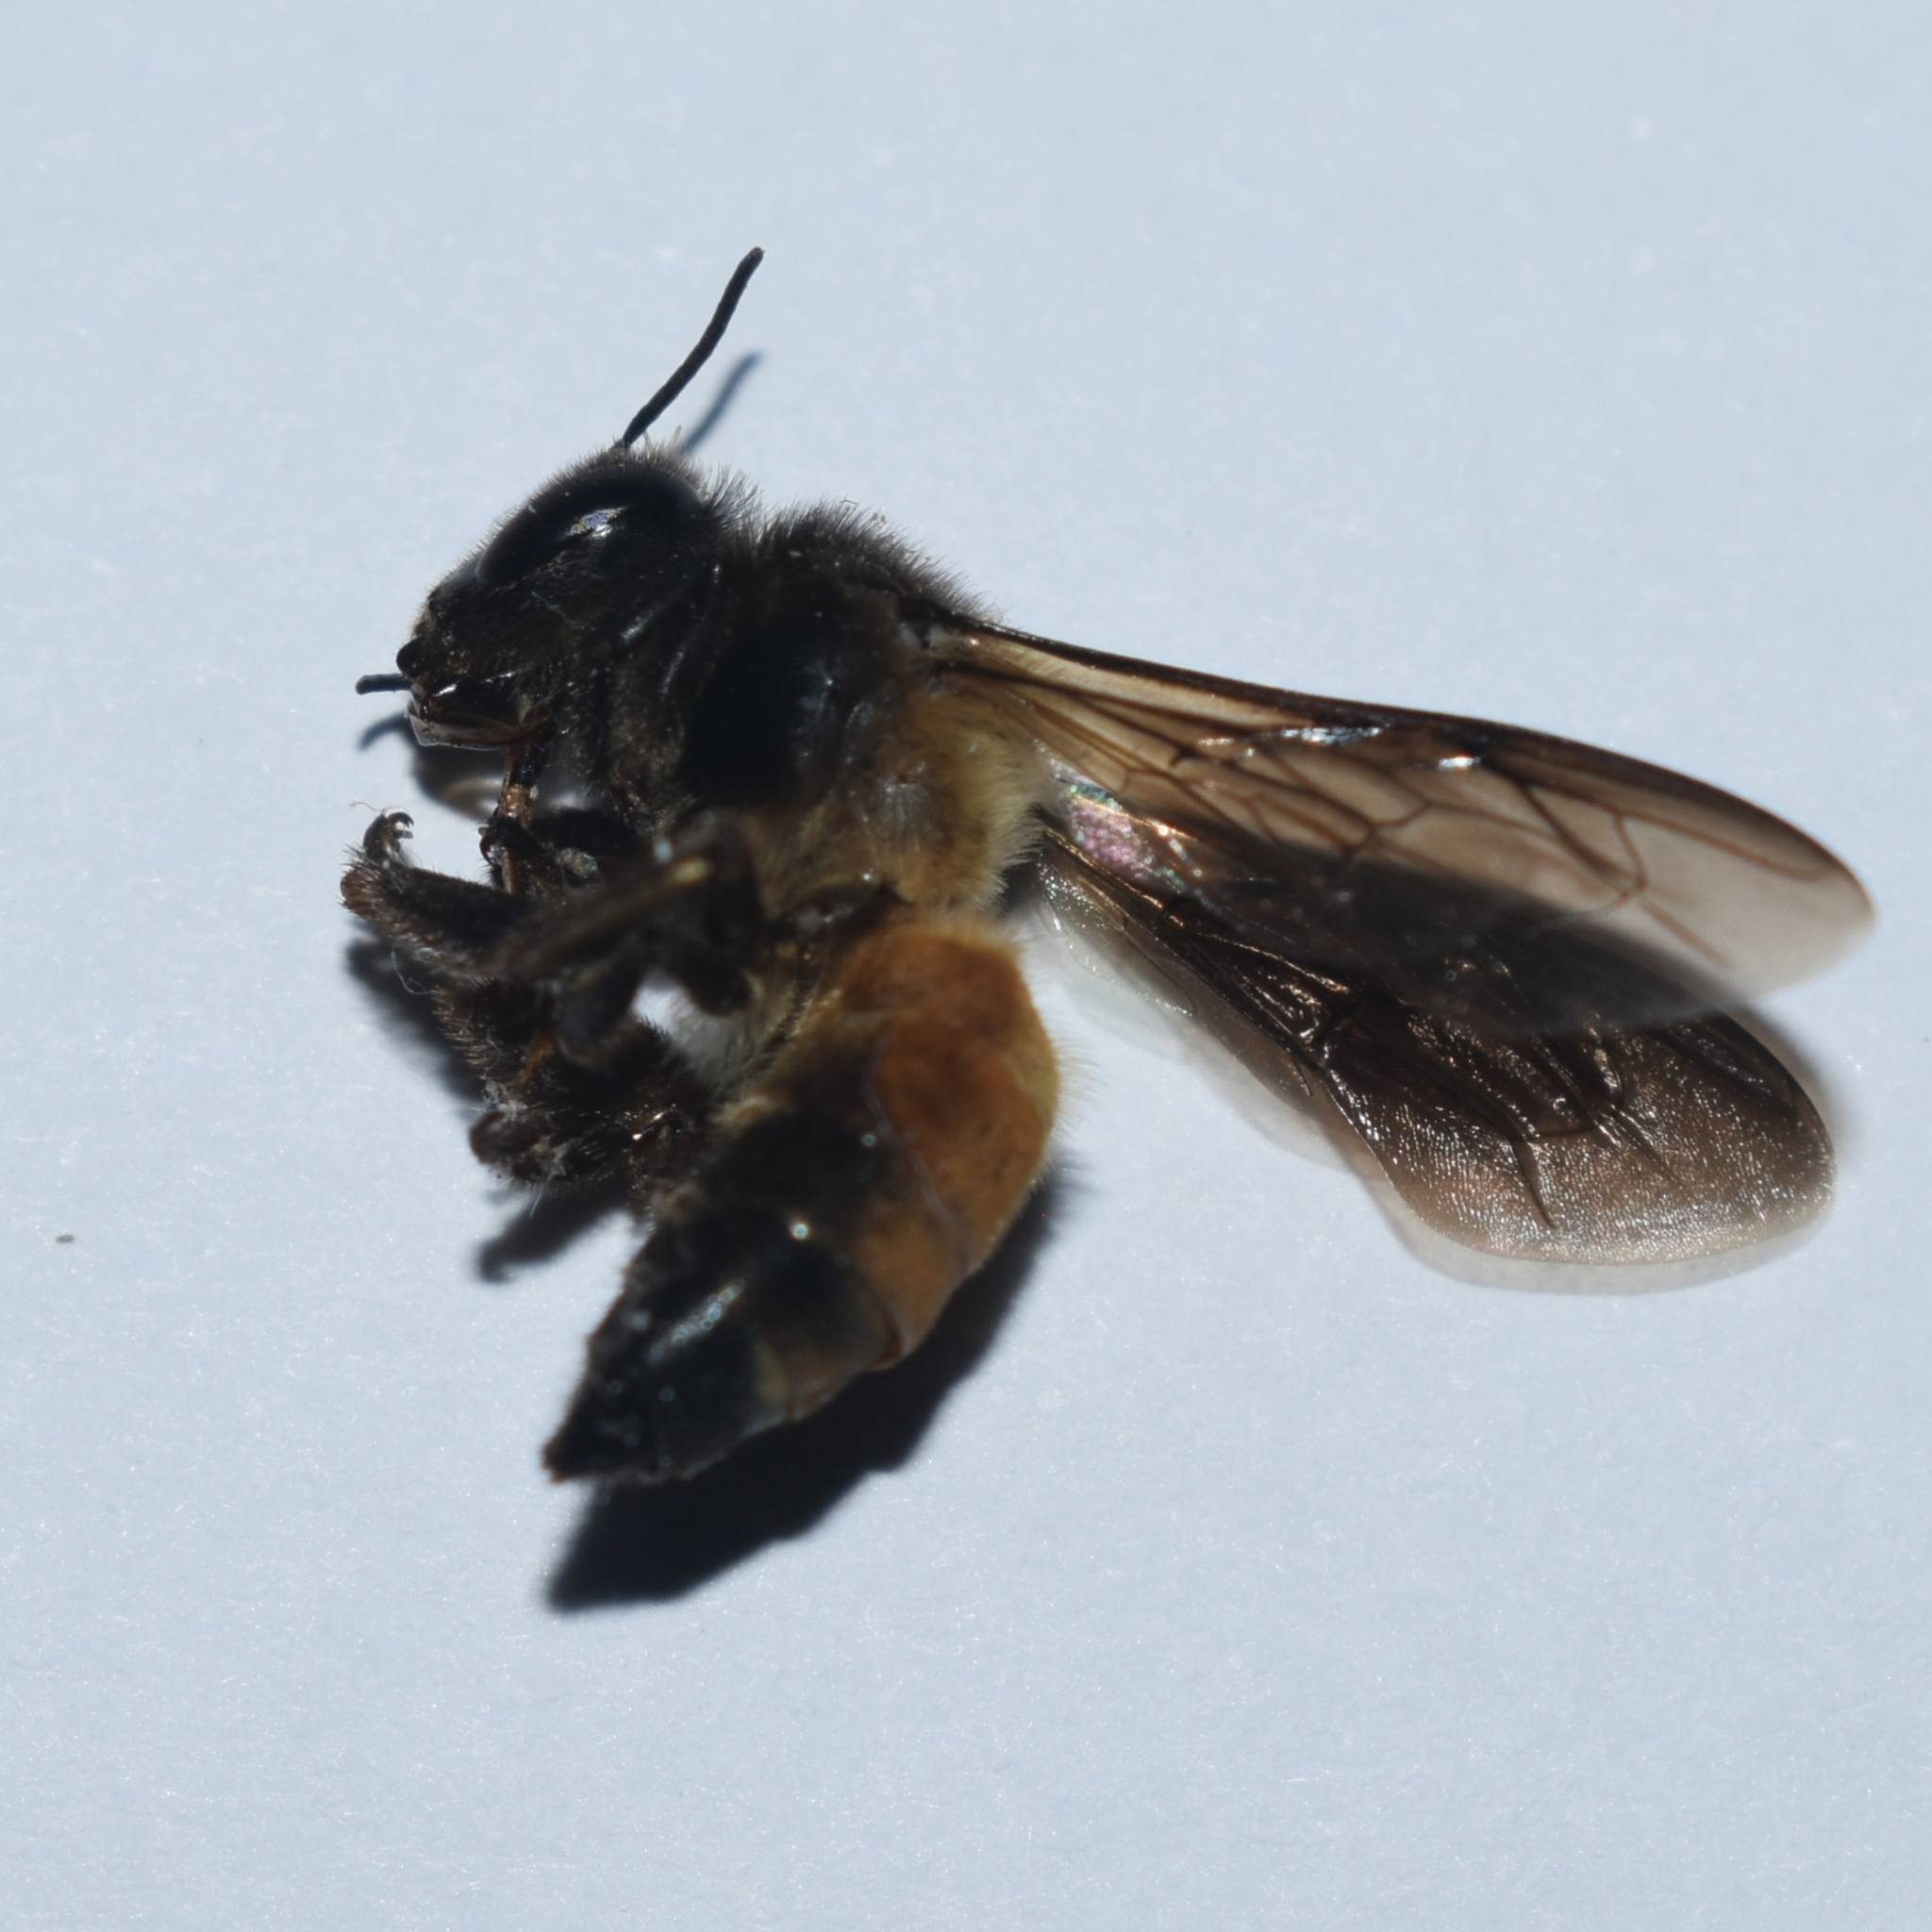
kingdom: Animalia
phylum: Arthropoda
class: Insecta
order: Hymenoptera
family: Apidae
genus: Apis
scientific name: Apis dorsata
